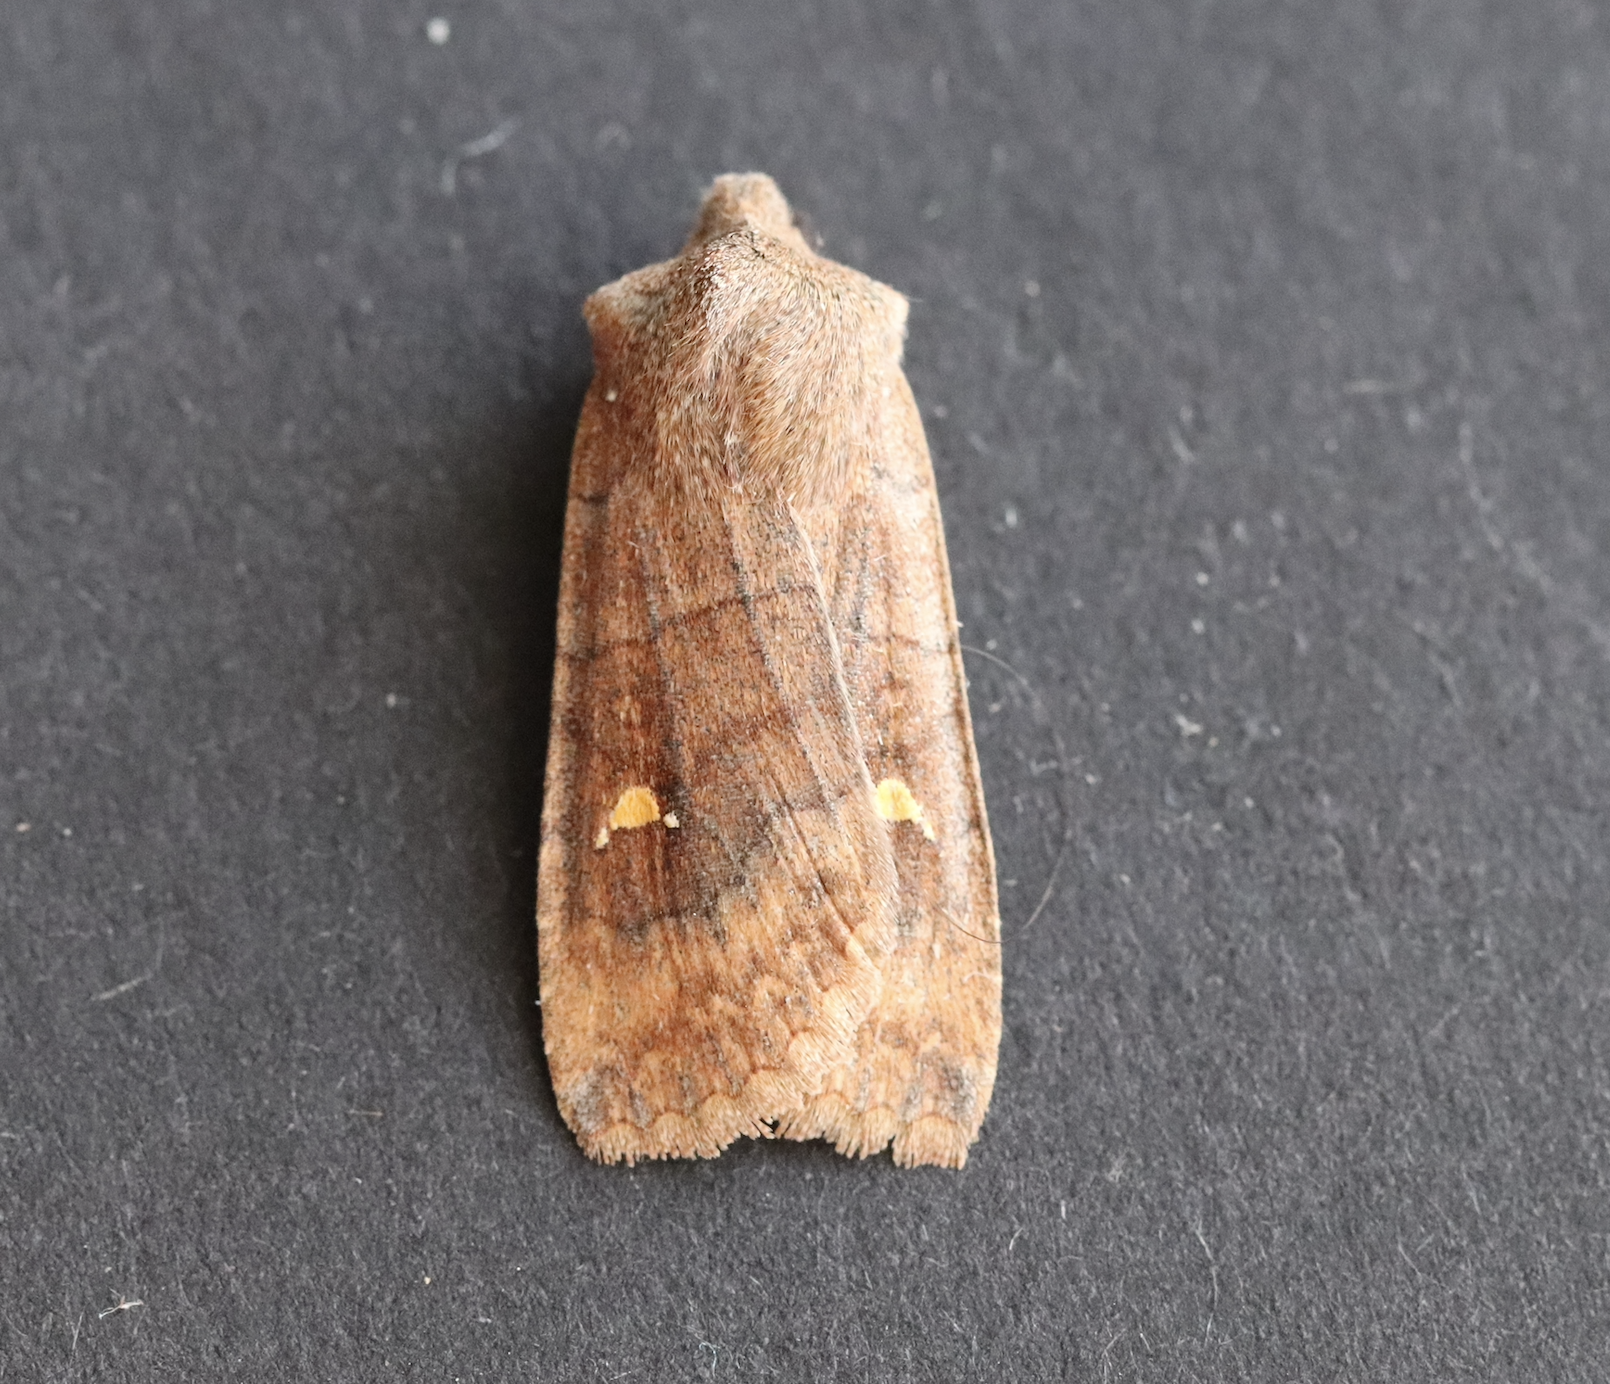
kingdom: Animalia
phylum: Arthropoda
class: Insecta
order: Lepidoptera
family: Noctuidae
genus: Eupsilia
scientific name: Eupsilia transversa
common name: Satellite
